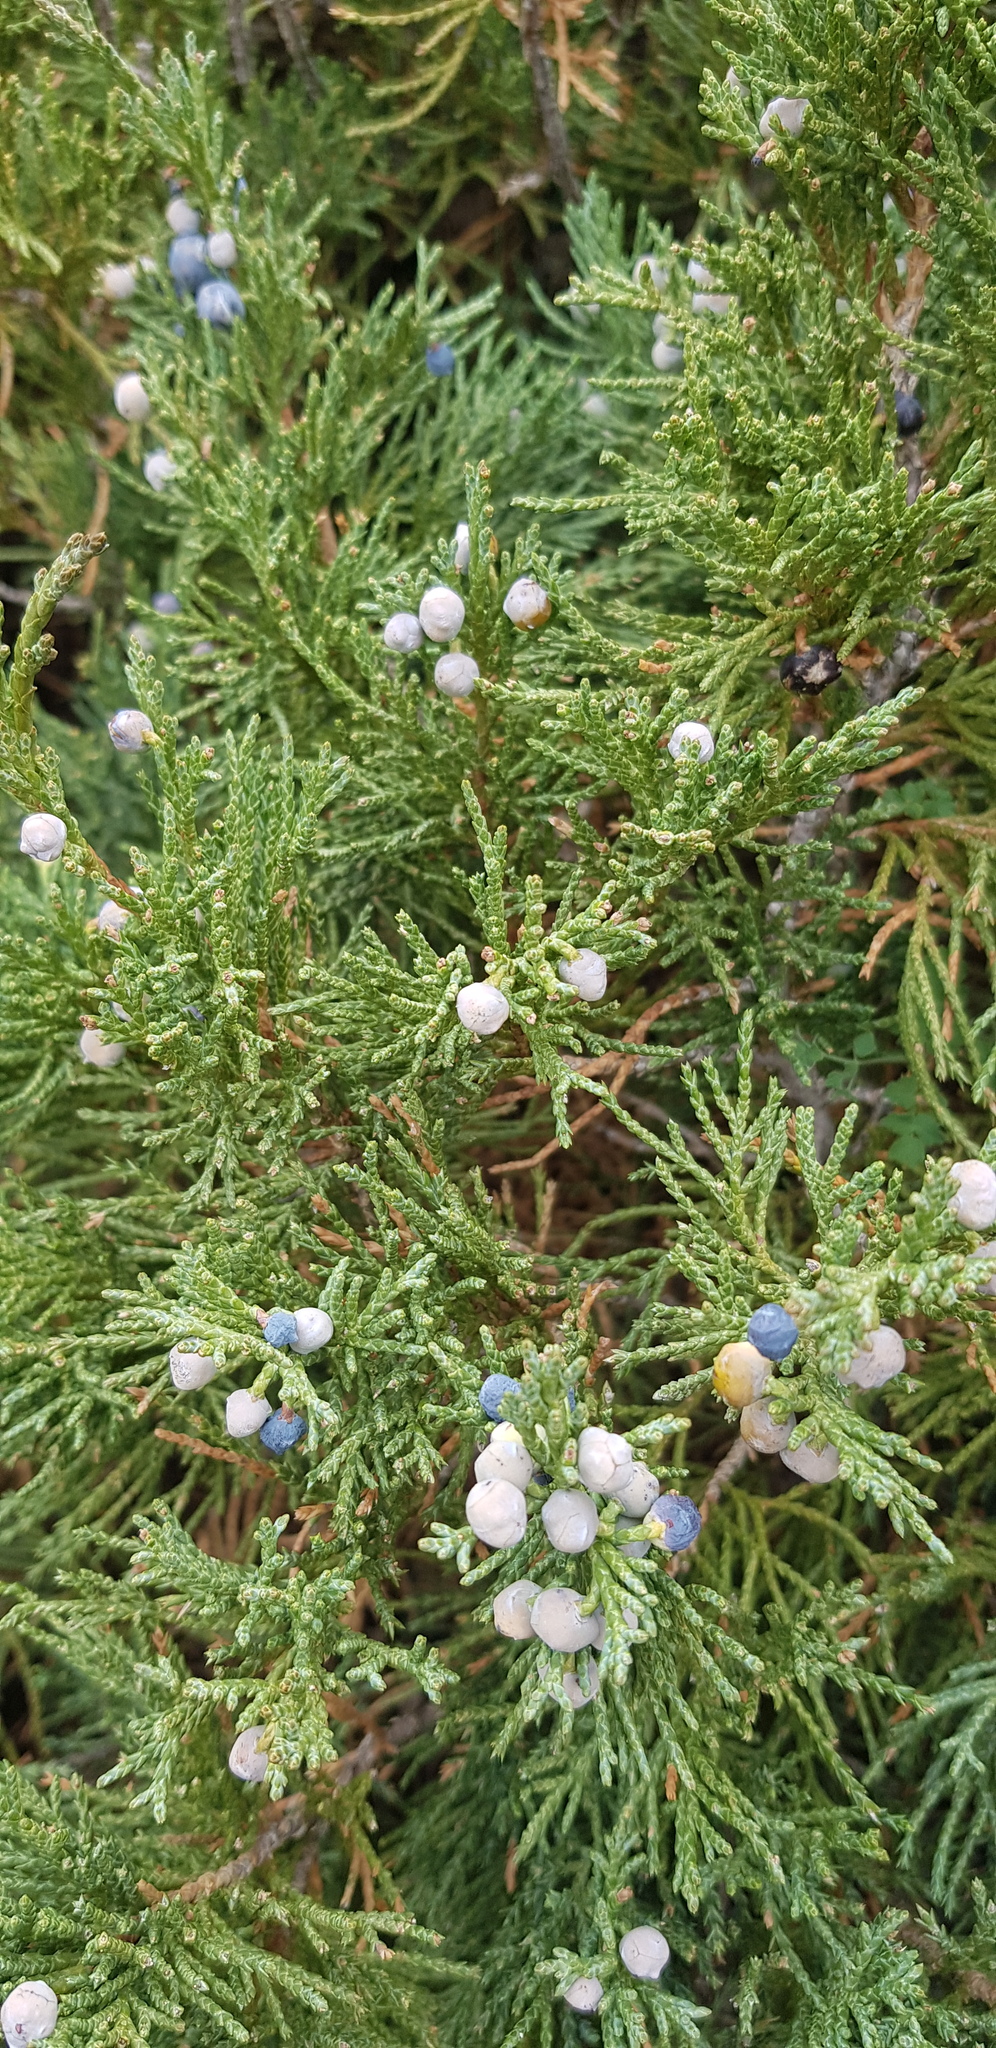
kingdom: Plantae
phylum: Tracheophyta
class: Pinopsida
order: Pinales
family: Cupressaceae
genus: Juniperus
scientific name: Juniperus sabina
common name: Savin
